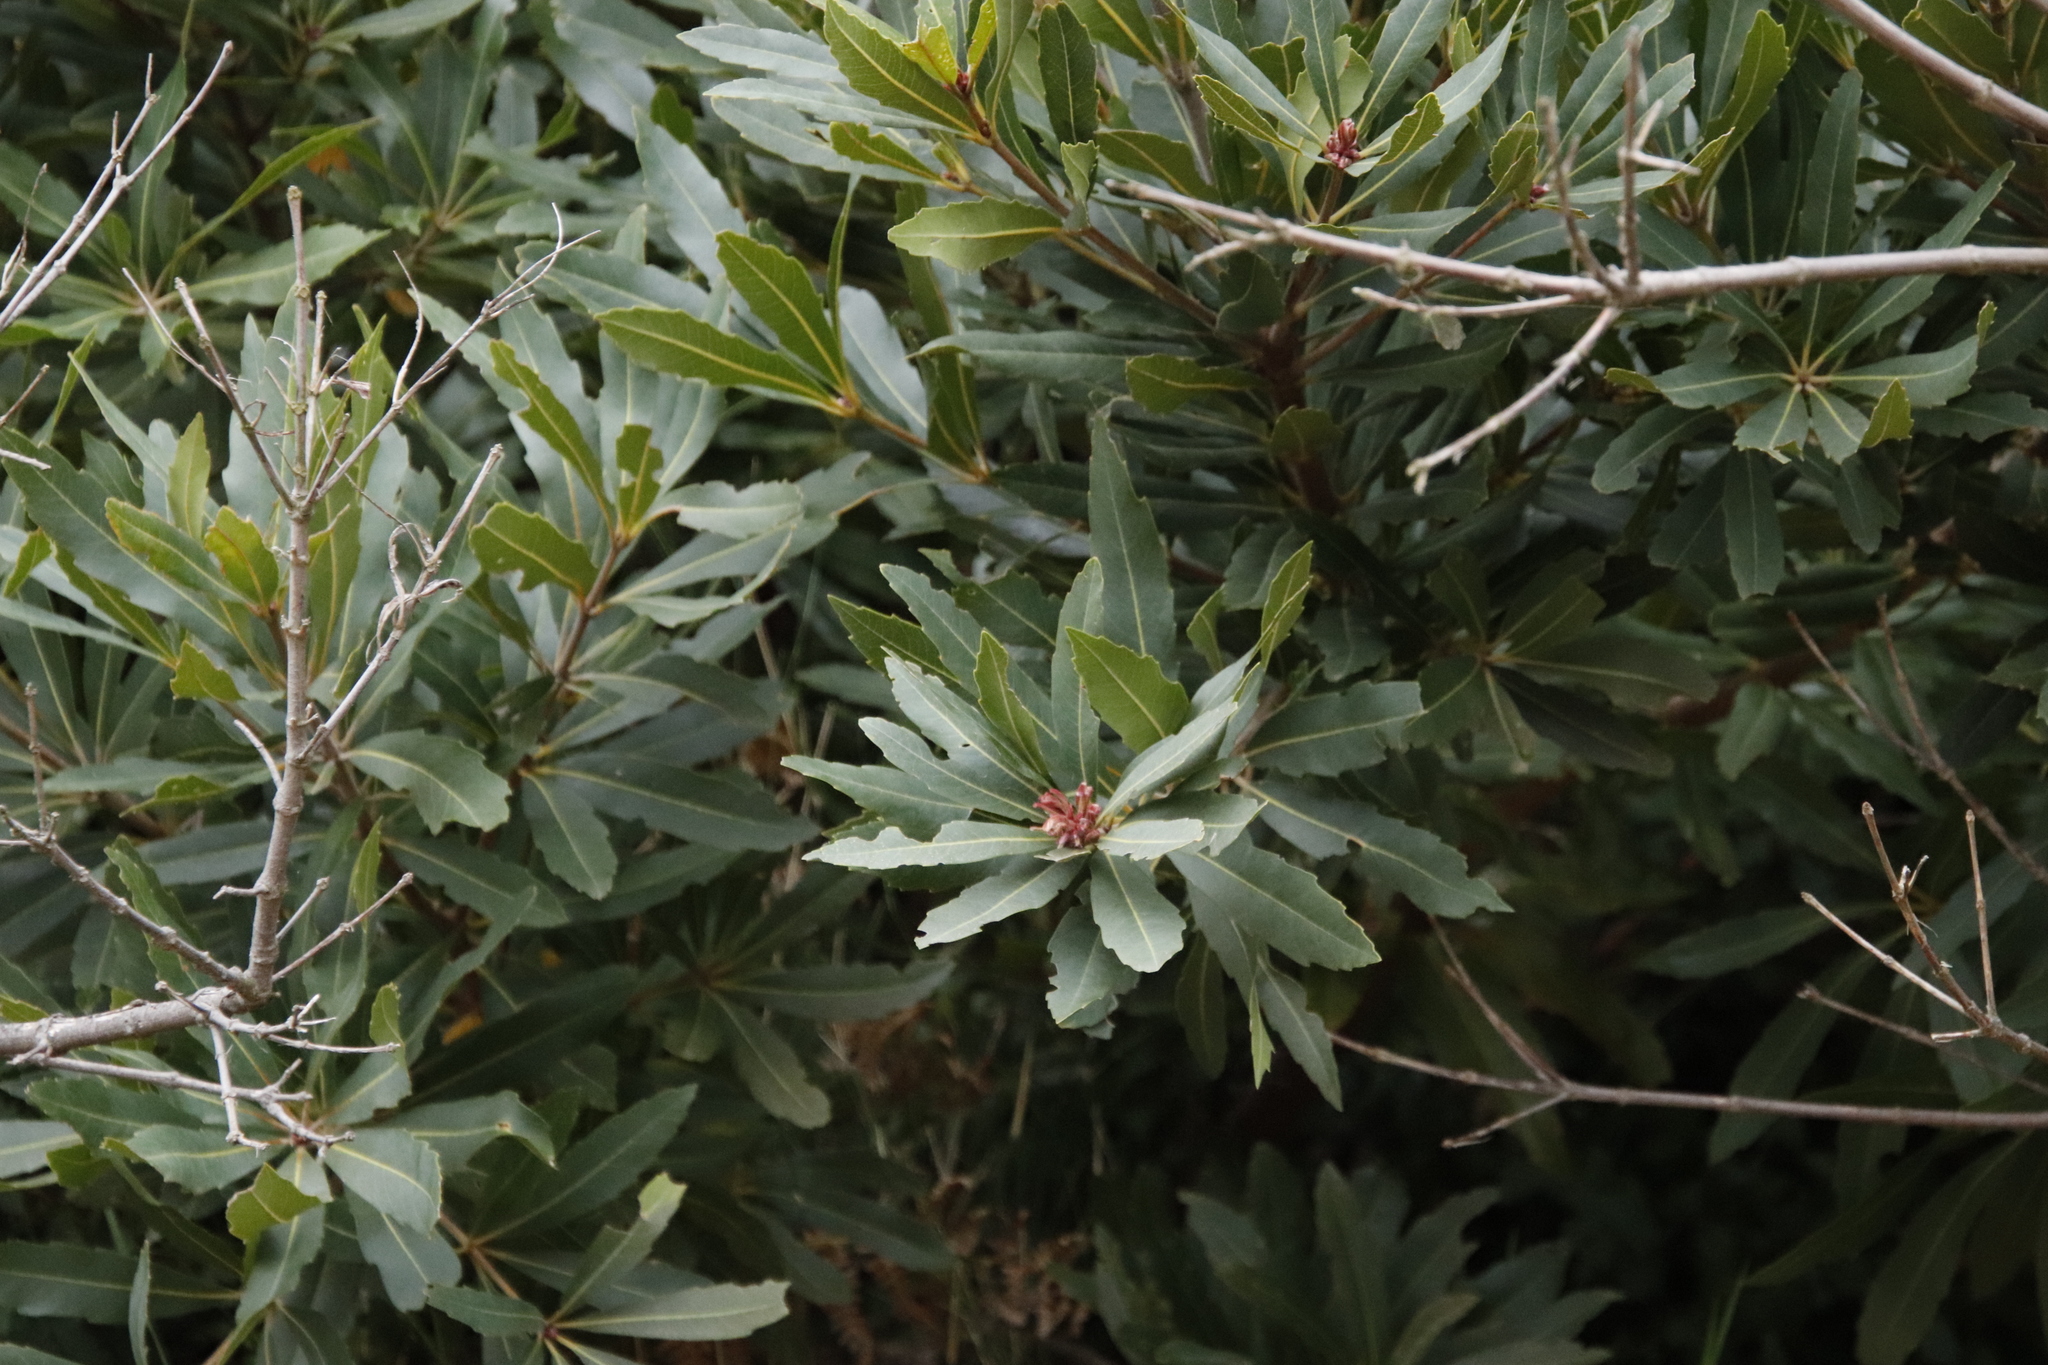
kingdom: Plantae
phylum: Tracheophyta
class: Magnoliopsida
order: Proteales
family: Proteaceae
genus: Brabejum
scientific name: Brabejum stellatifolium
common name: Wild almond
